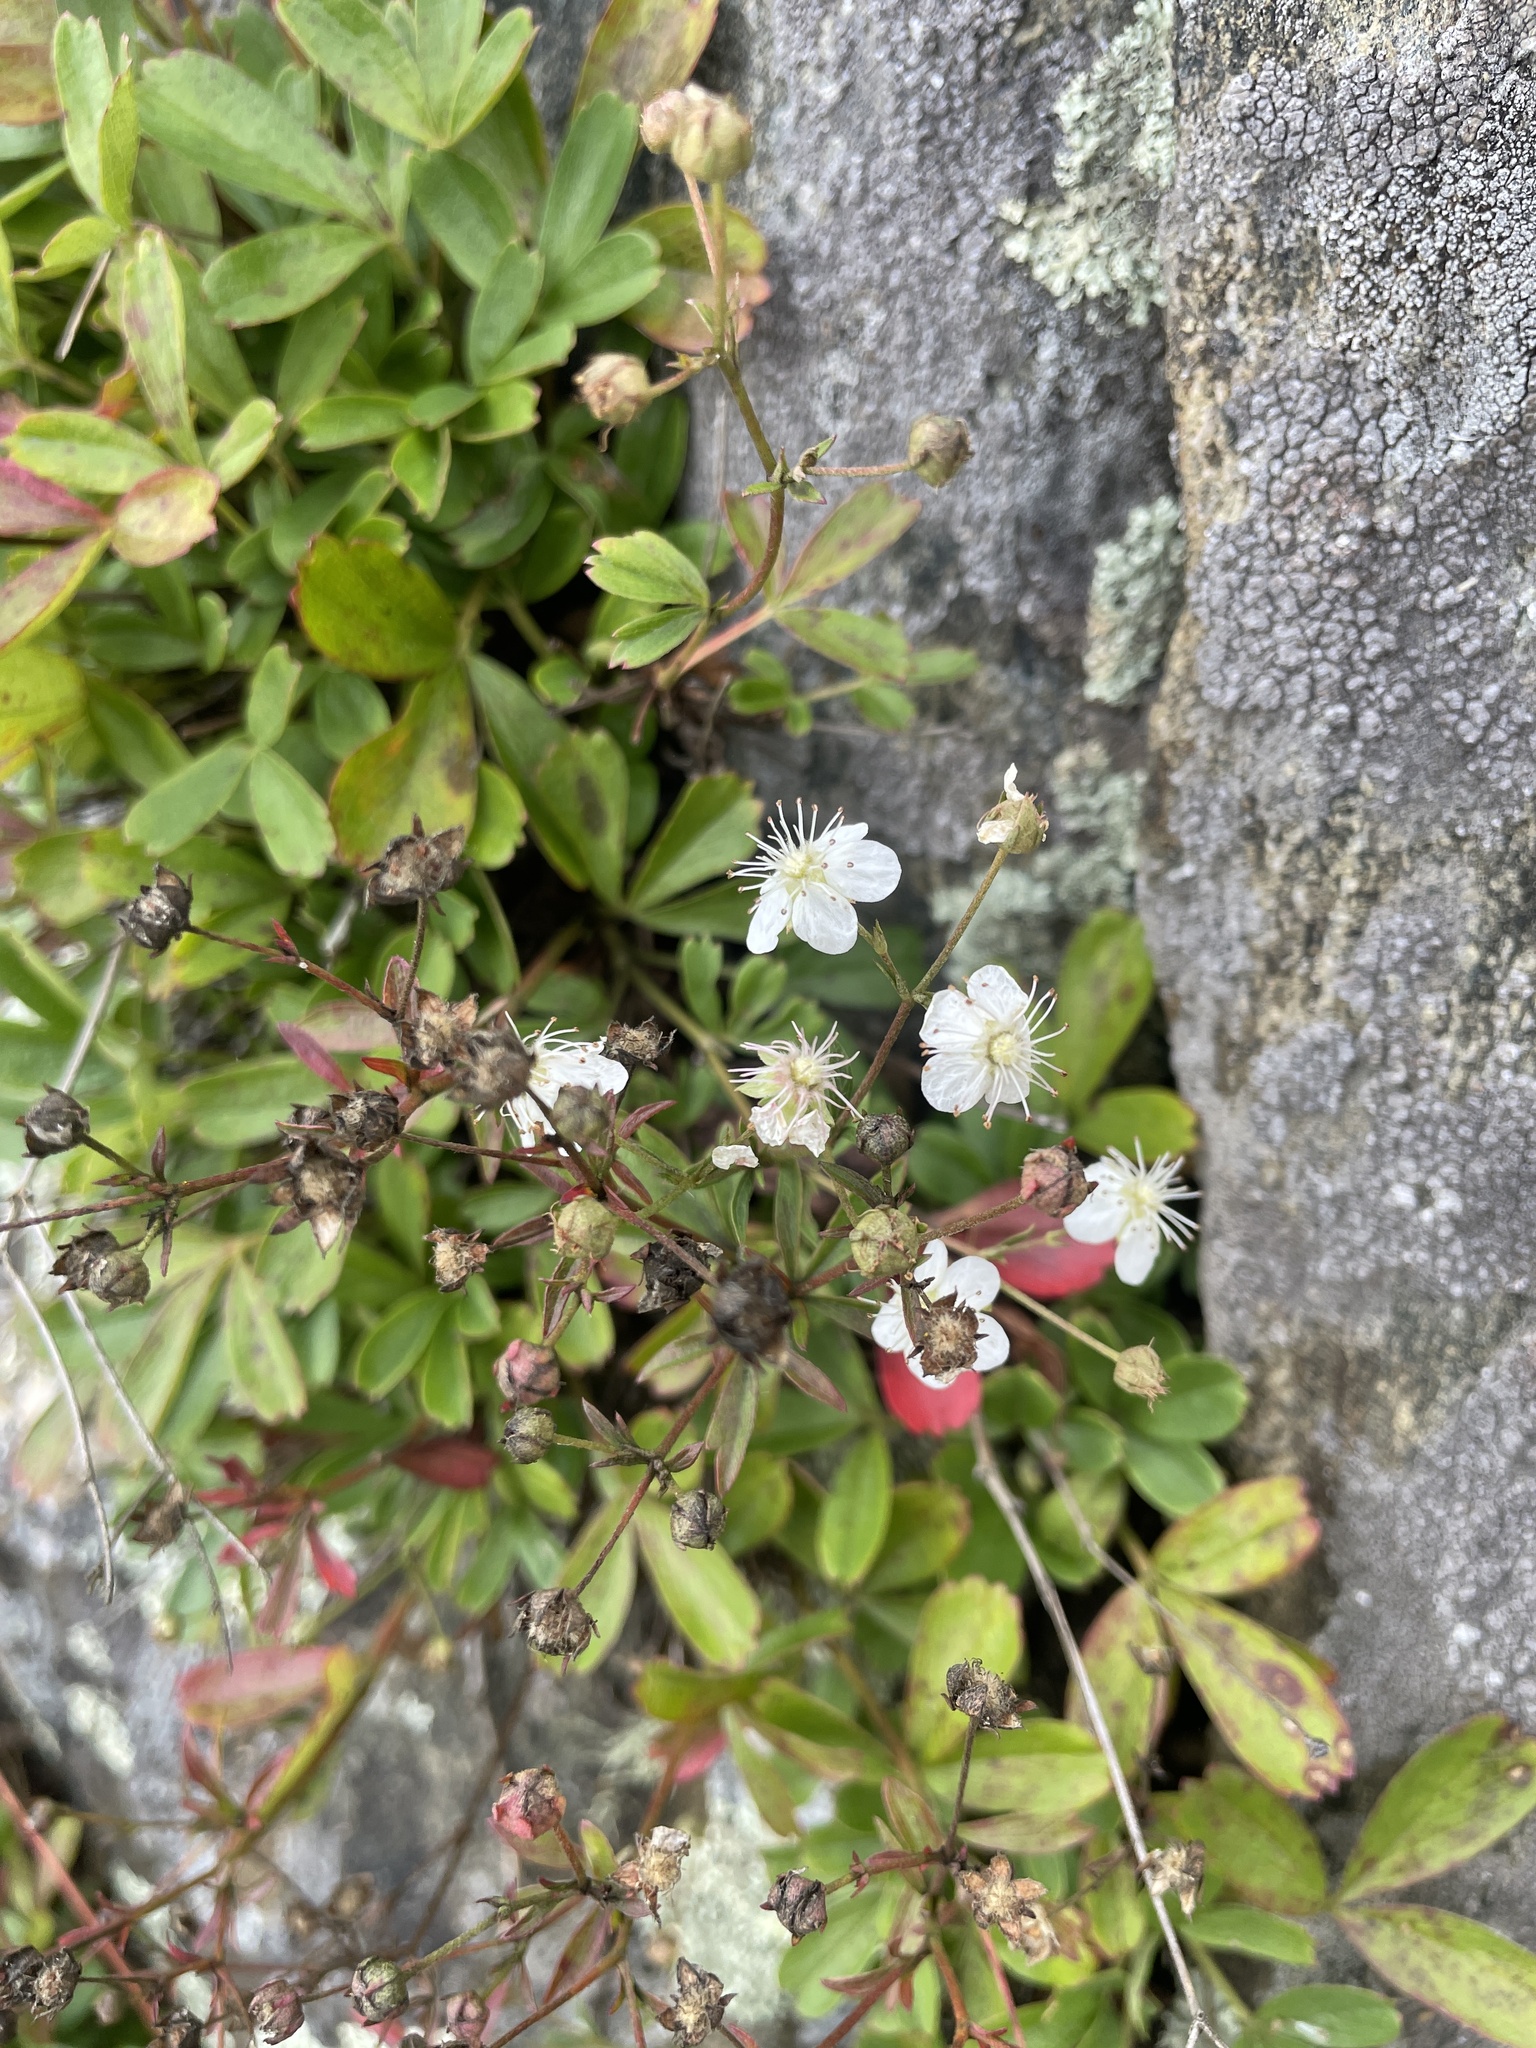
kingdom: Plantae
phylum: Tracheophyta
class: Magnoliopsida
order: Rosales
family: Rosaceae
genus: Sibbaldia
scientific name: Sibbaldia tridentata
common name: Three-toothed cinquefoil
